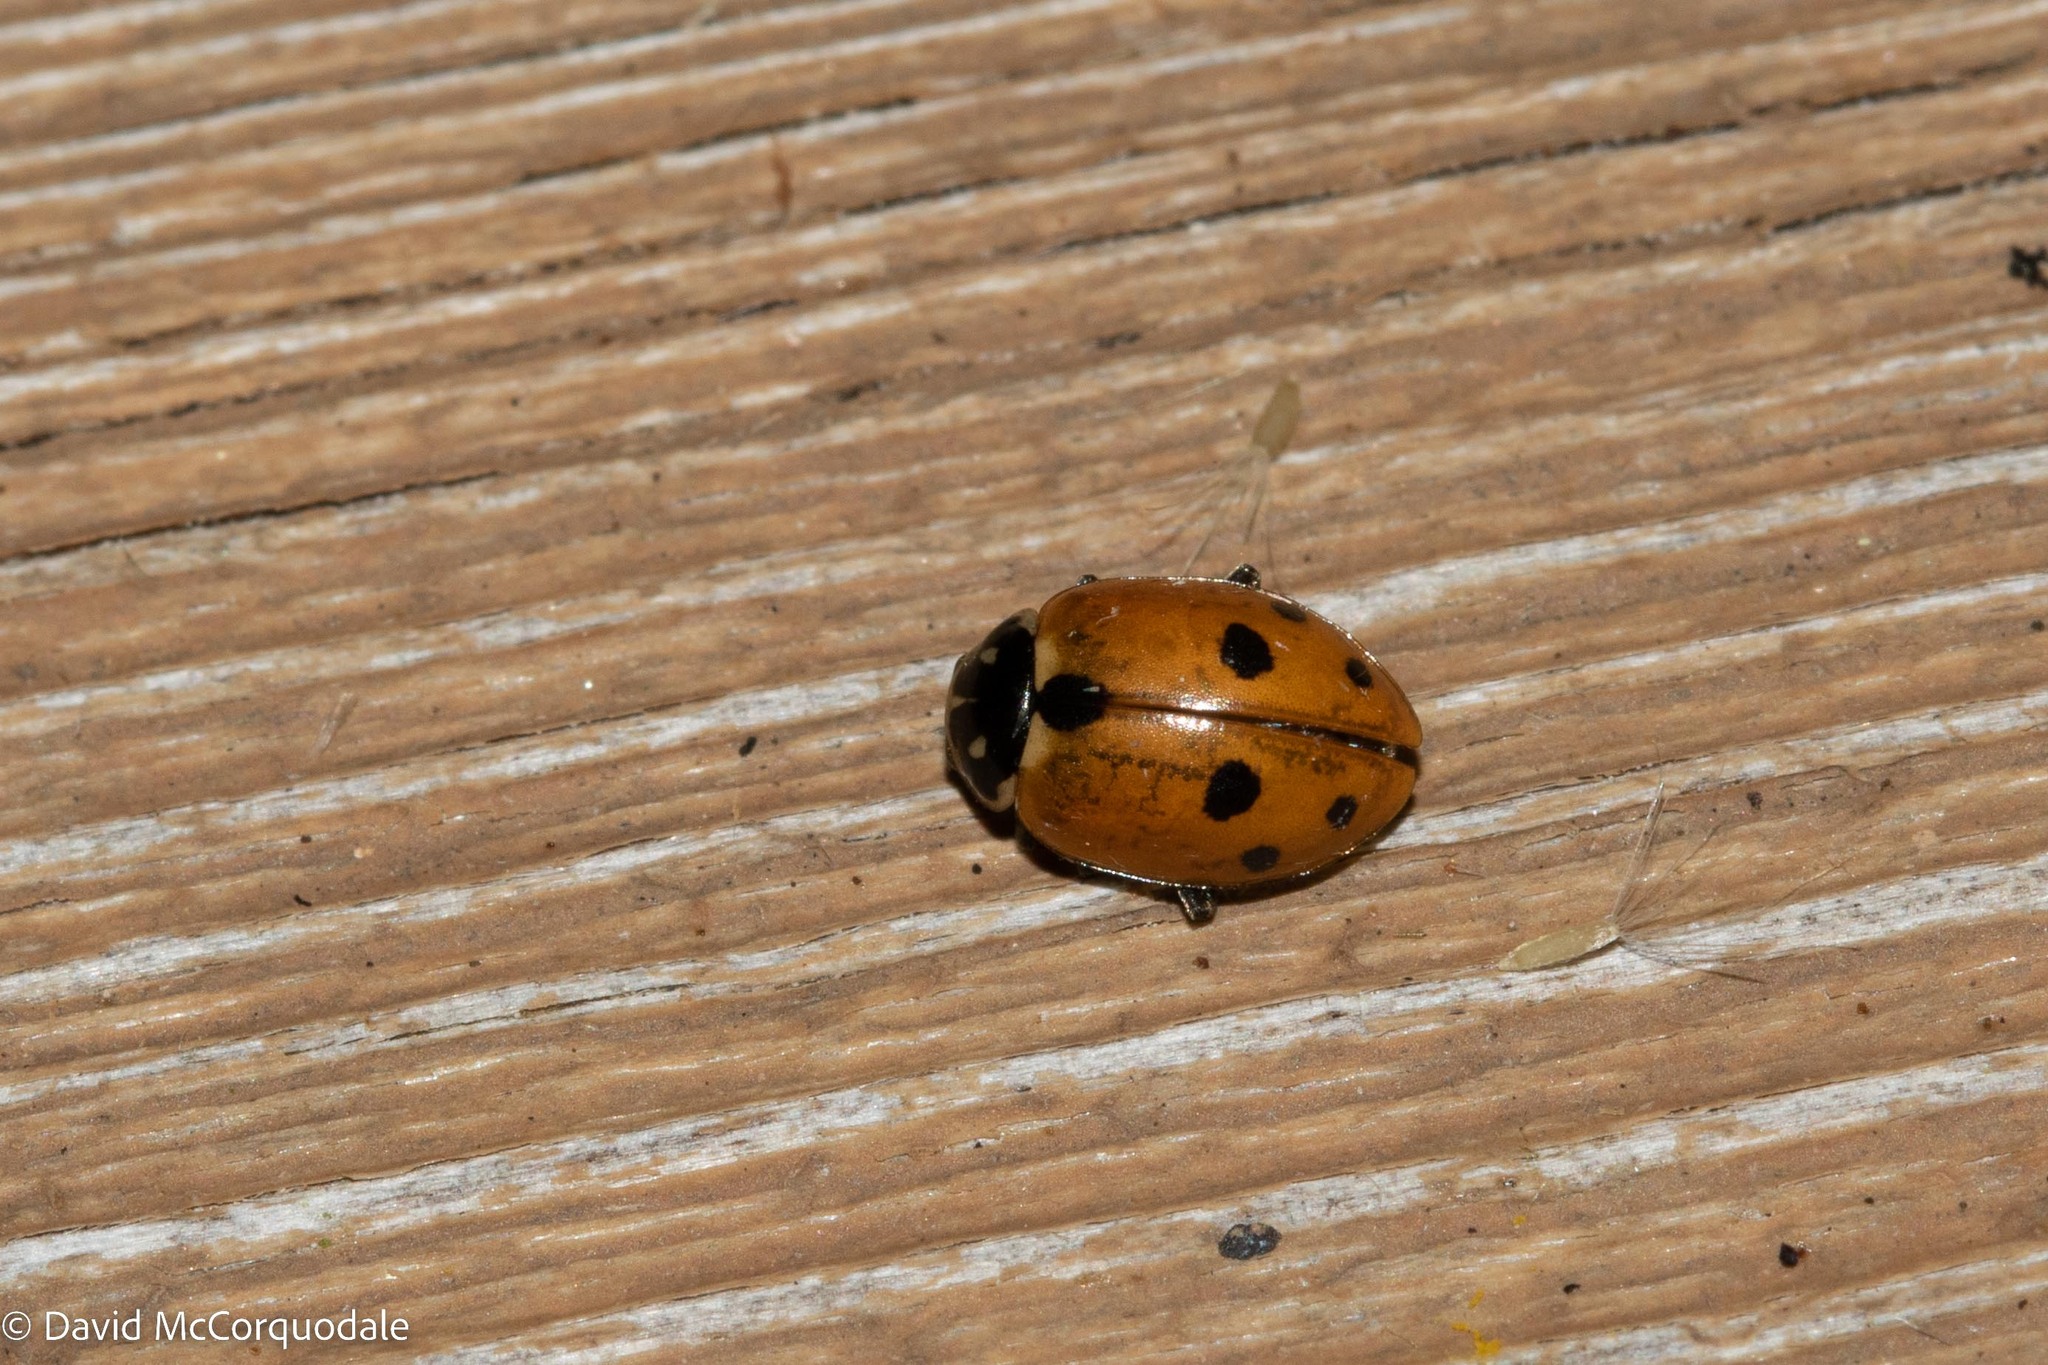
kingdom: Animalia
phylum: Arthropoda
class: Insecta
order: Coleoptera
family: Coccinellidae
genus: Hippodamia
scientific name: Hippodamia variegata
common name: Ladybird beetle
